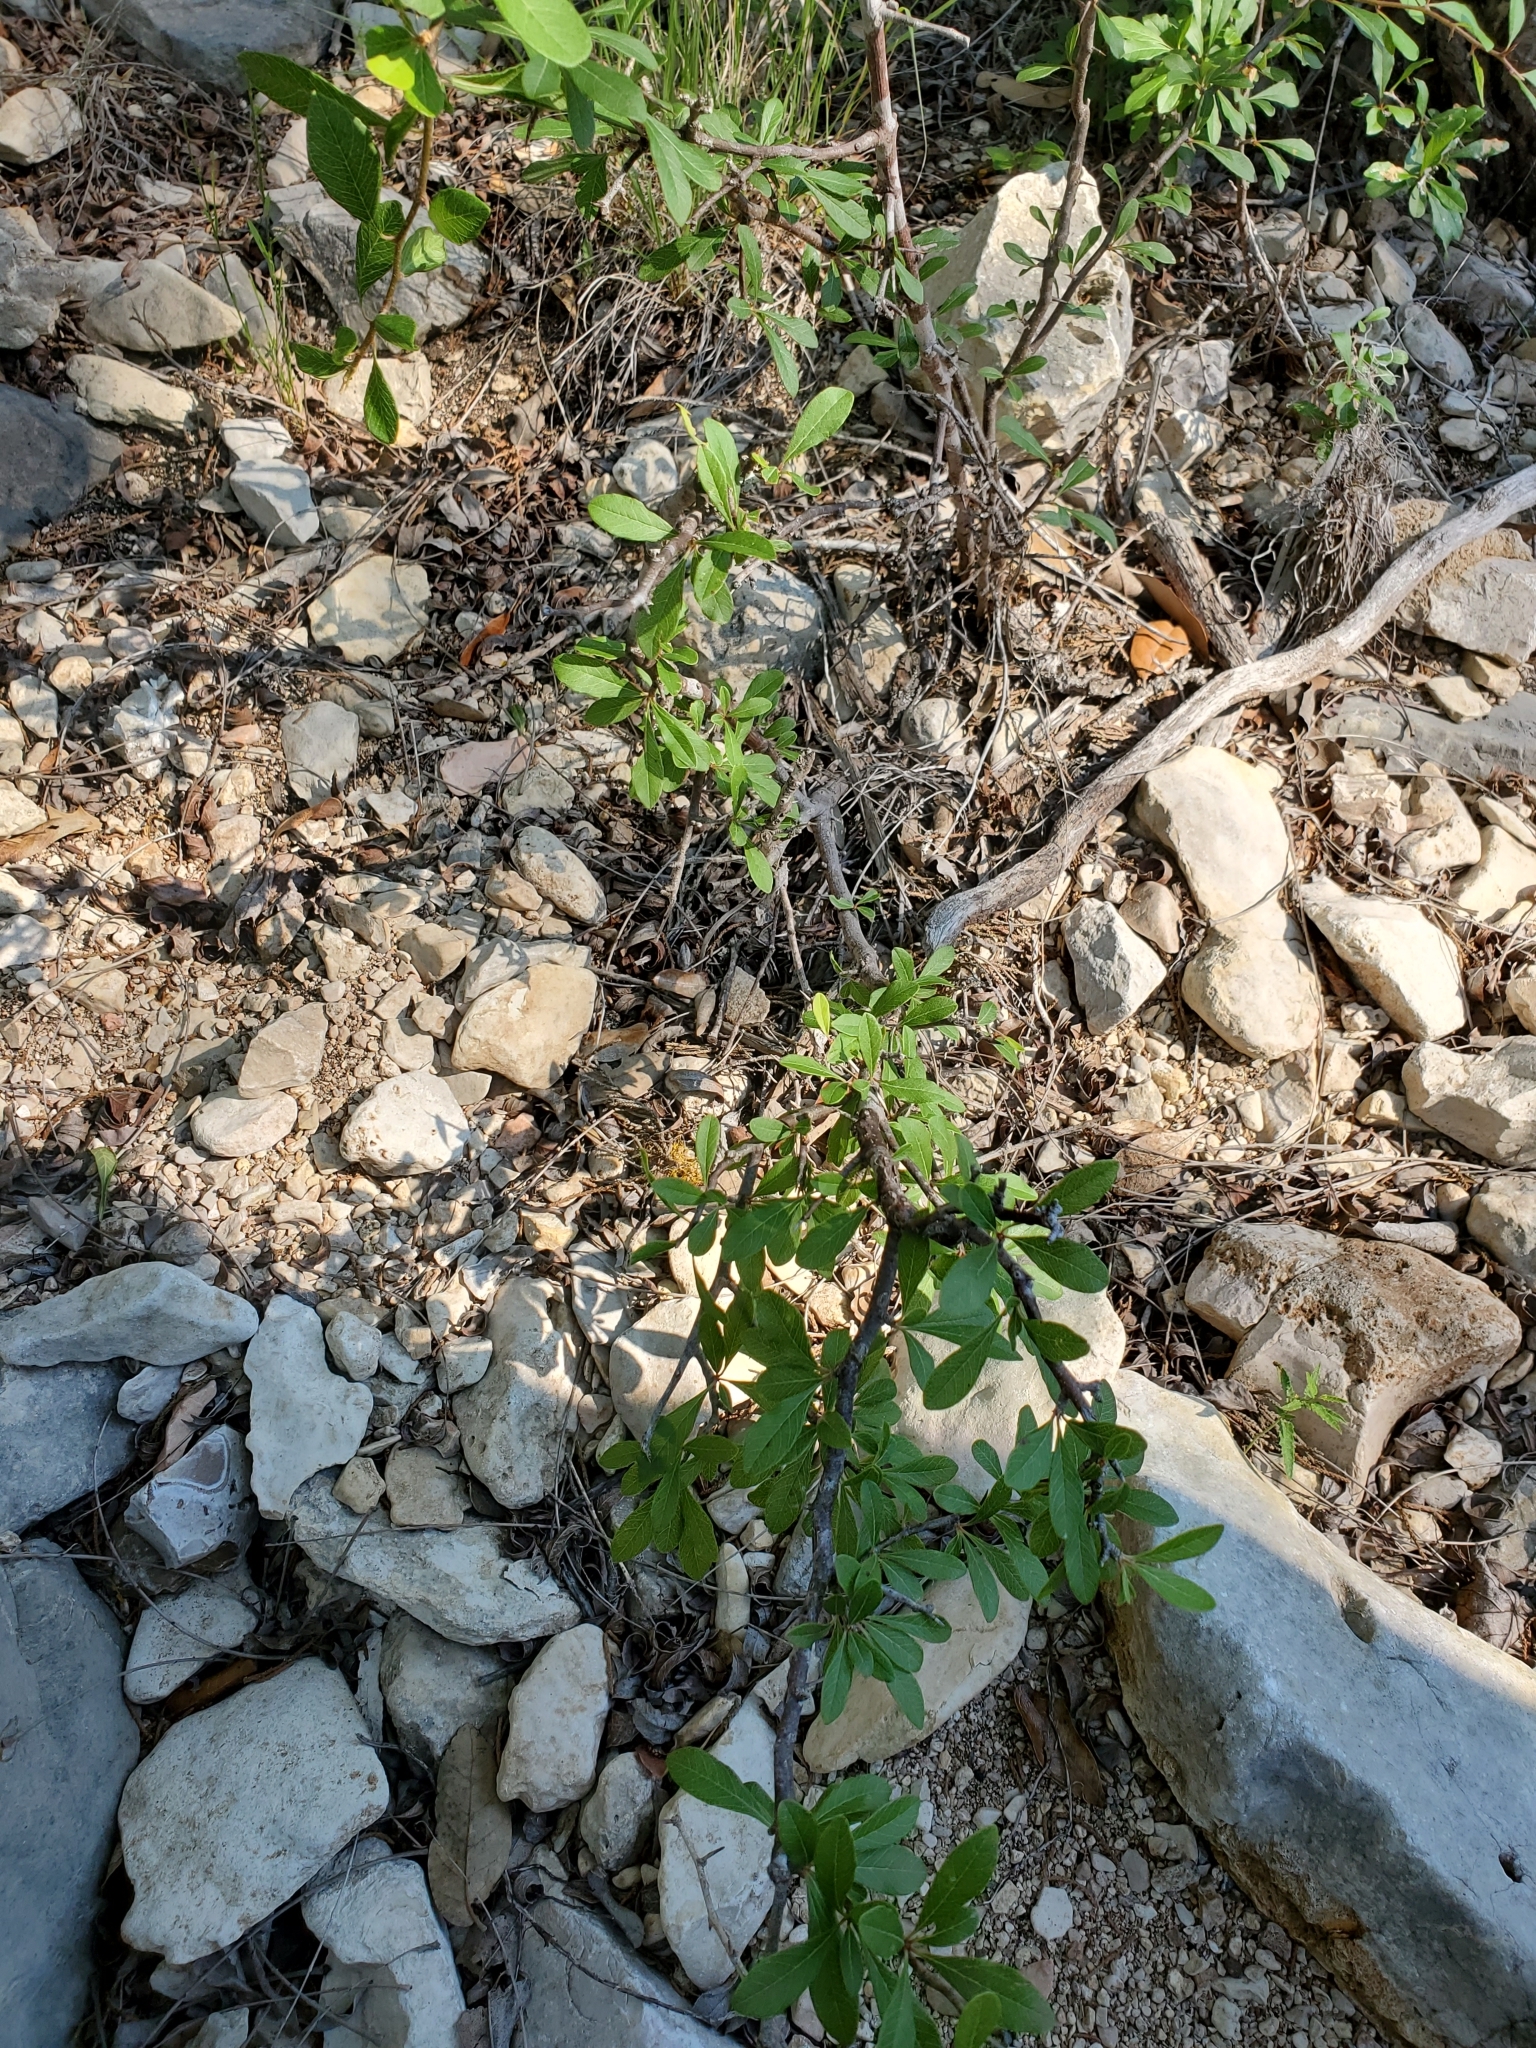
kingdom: Plantae
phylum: Tracheophyta
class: Magnoliopsida
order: Ericales
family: Sapotaceae
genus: Sideroxylon
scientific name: Sideroxylon lanuginosum
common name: Chittamwood
